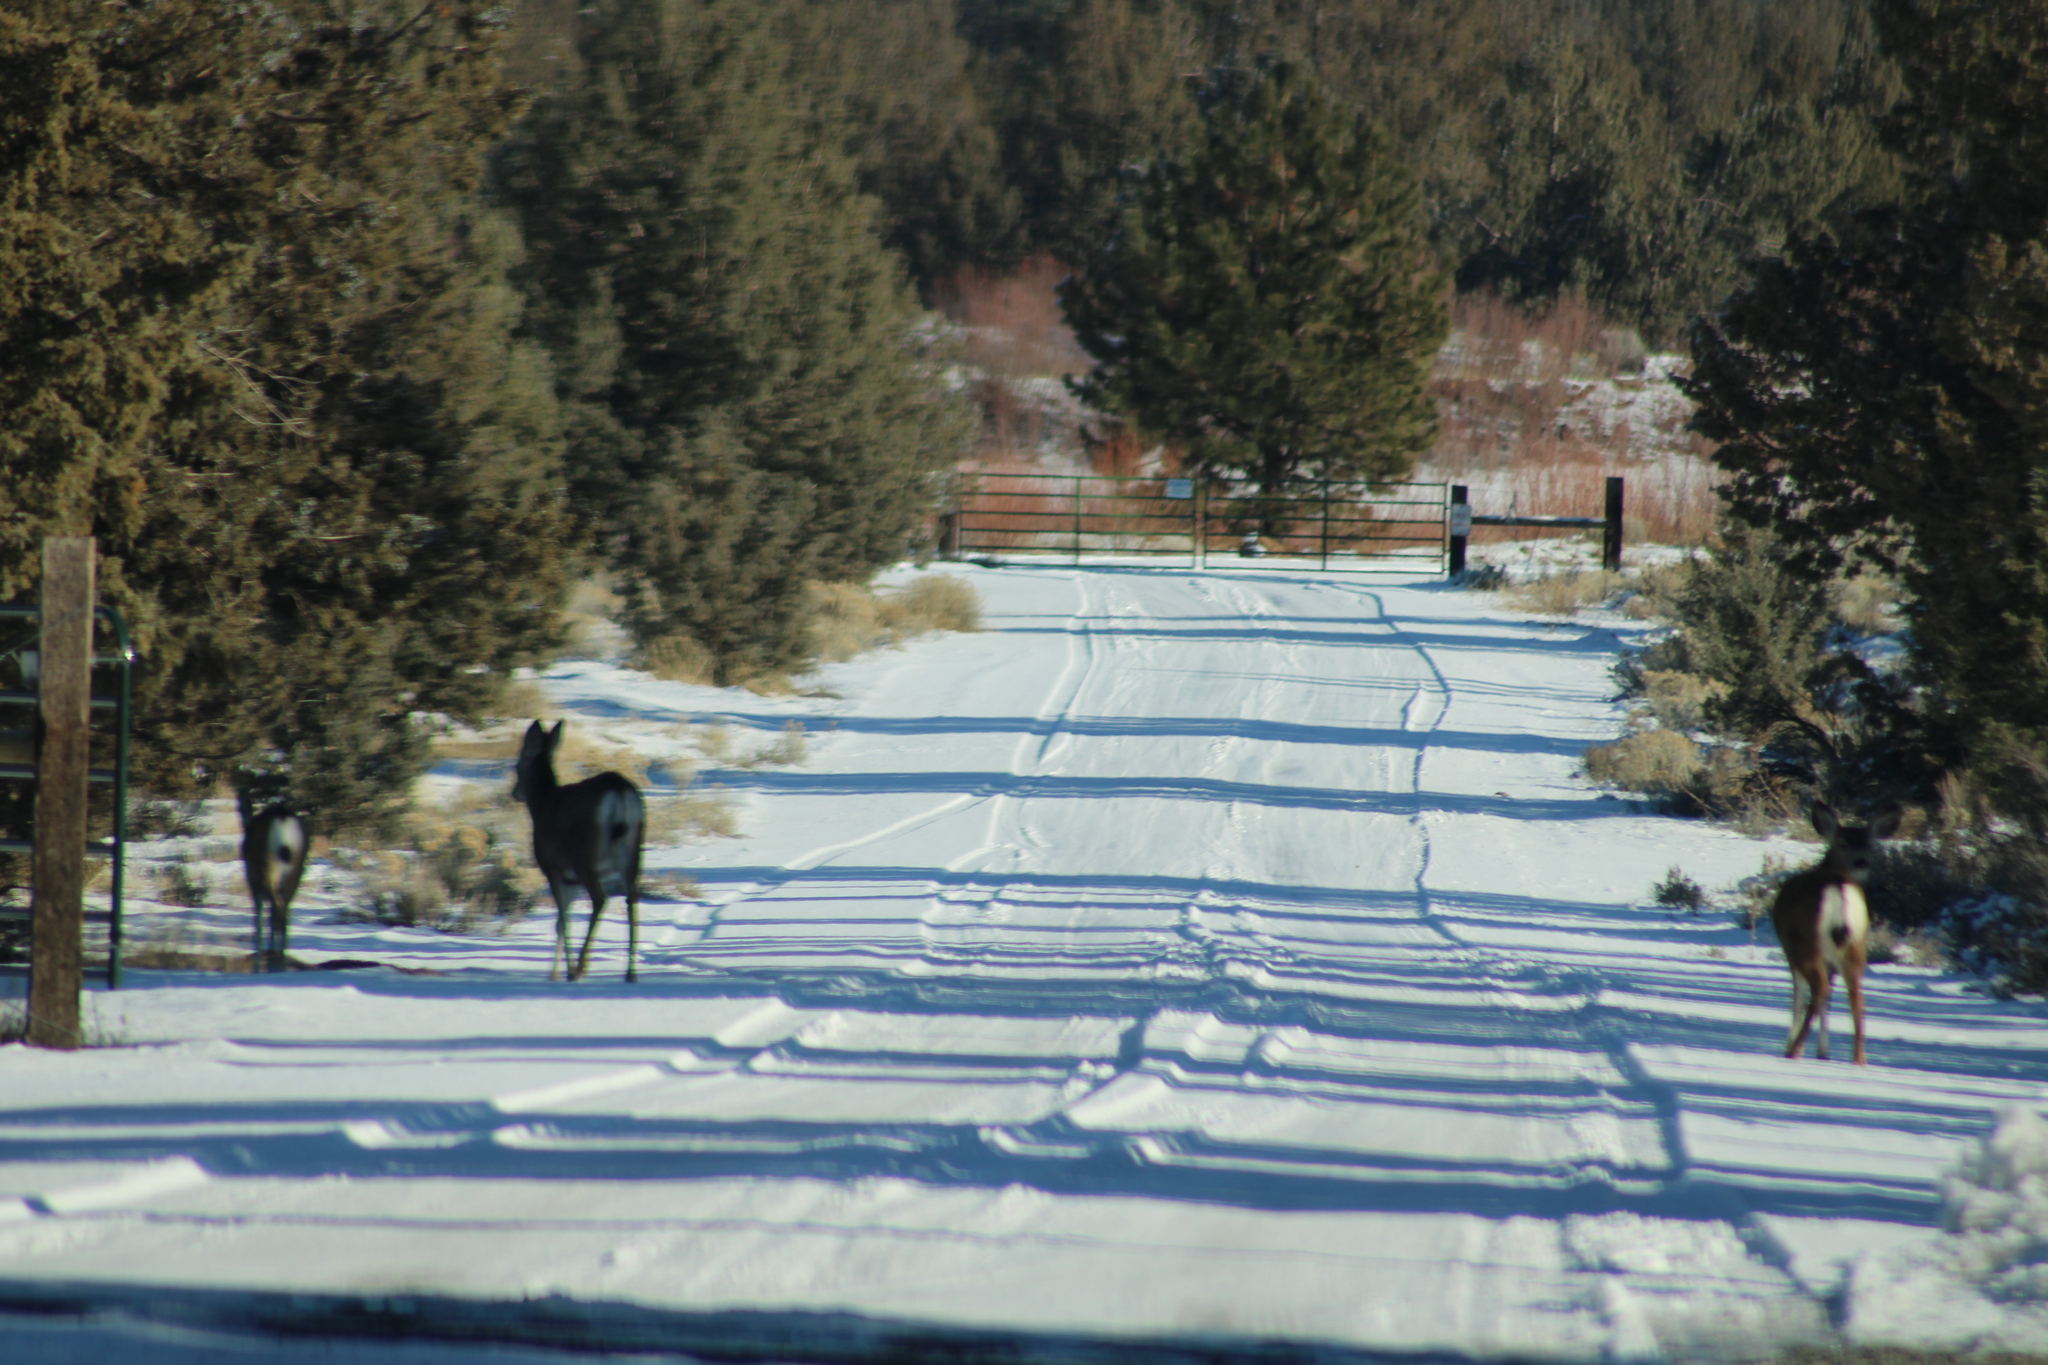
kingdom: Animalia
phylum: Chordata
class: Mammalia
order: Artiodactyla
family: Cervidae
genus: Odocoileus
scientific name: Odocoileus hemionus
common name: Mule deer
